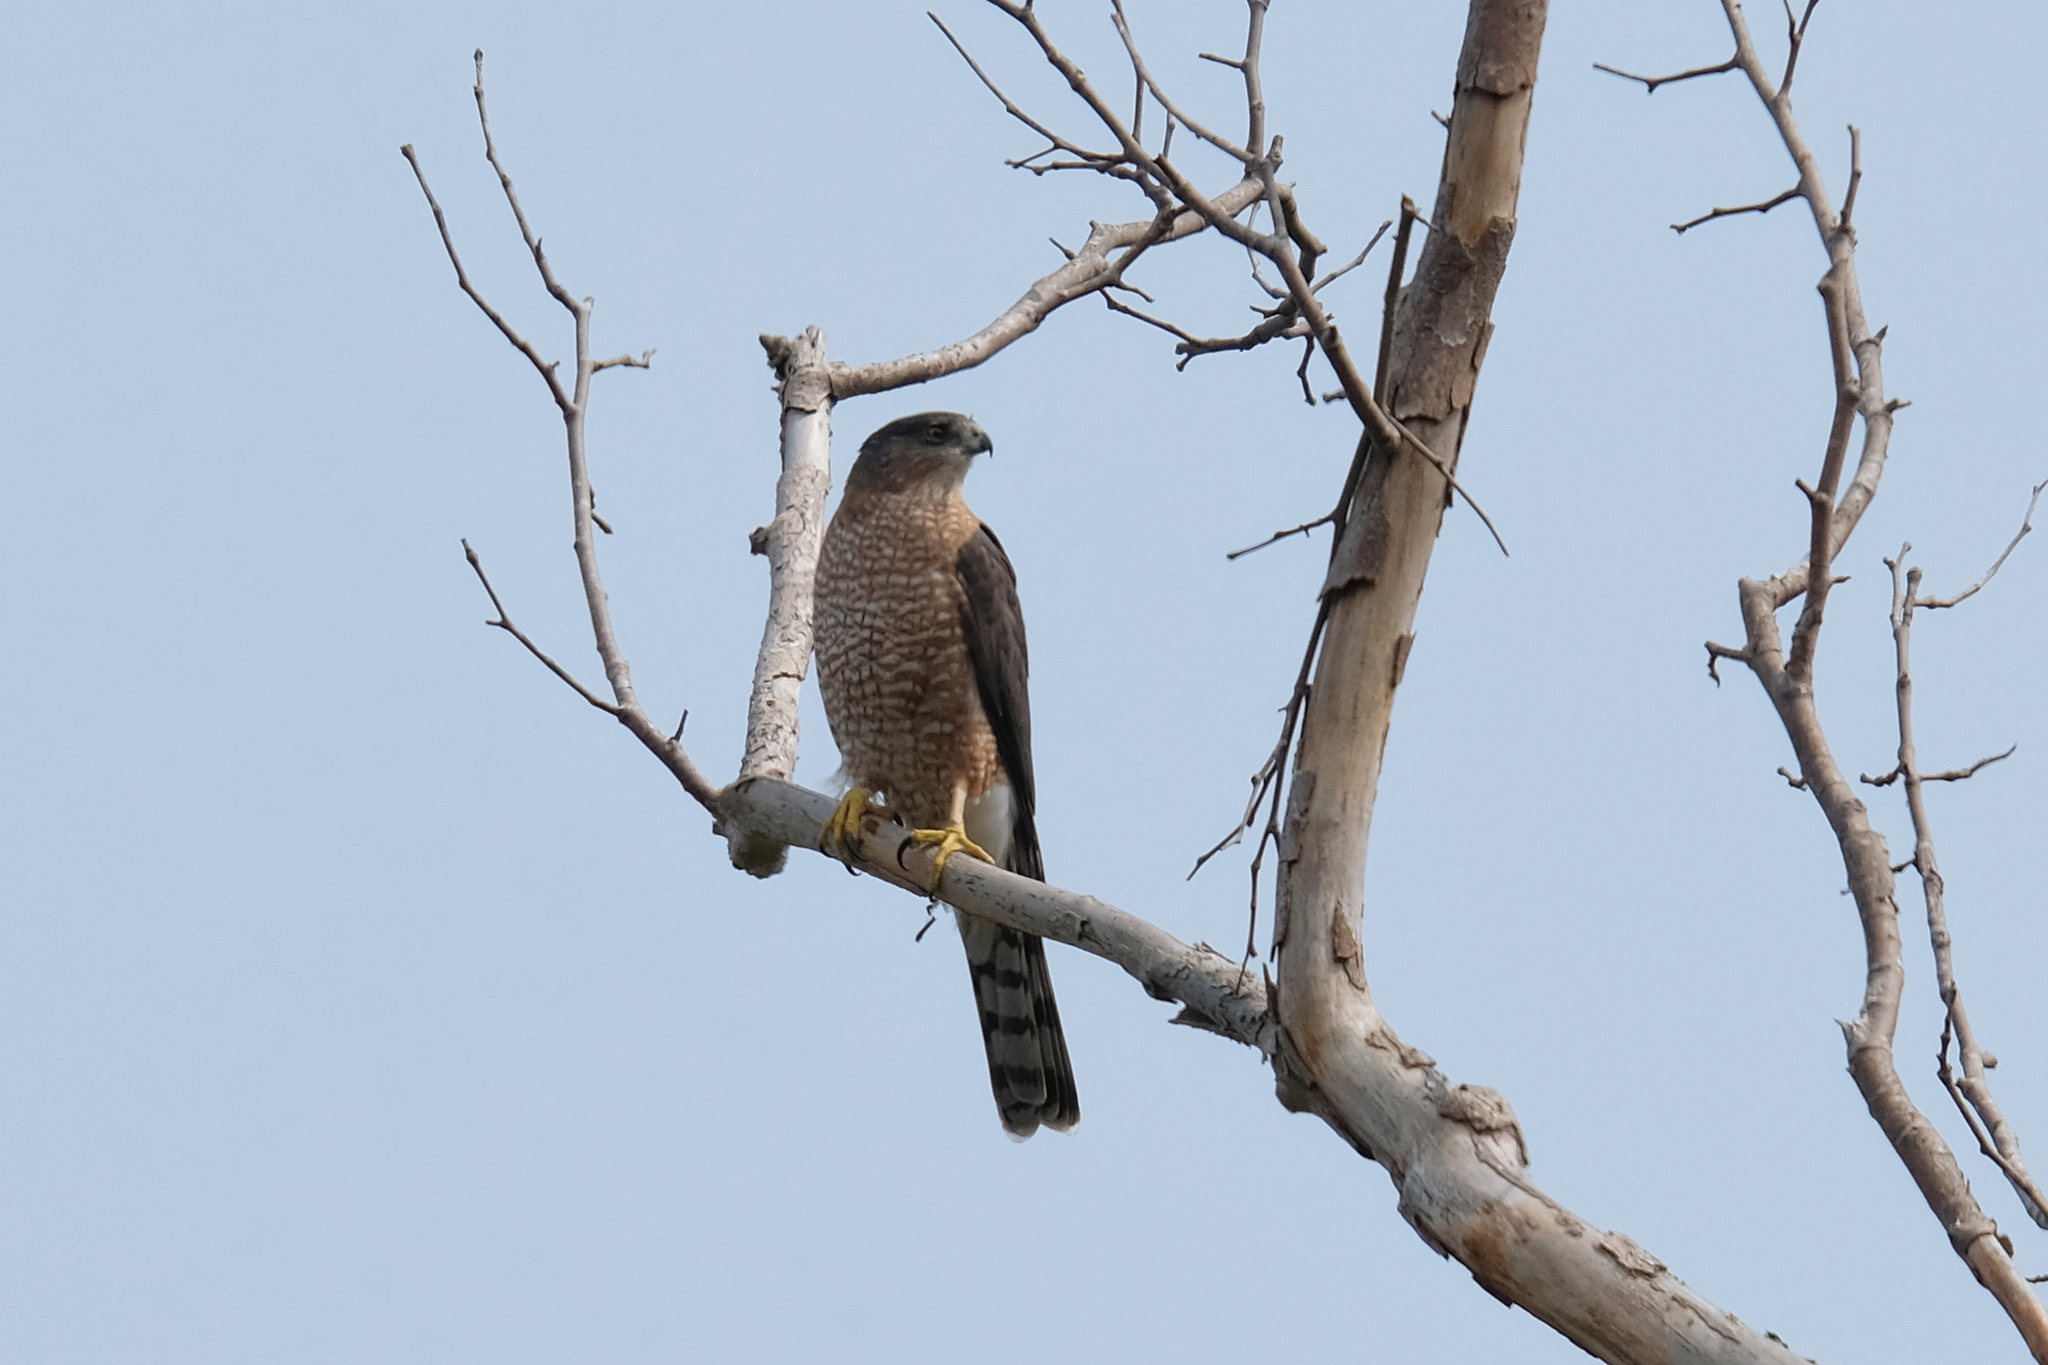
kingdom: Animalia
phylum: Chordata
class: Aves
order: Accipitriformes
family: Accipitridae
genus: Accipiter
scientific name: Accipiter cooperii
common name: Cooper's hawk
